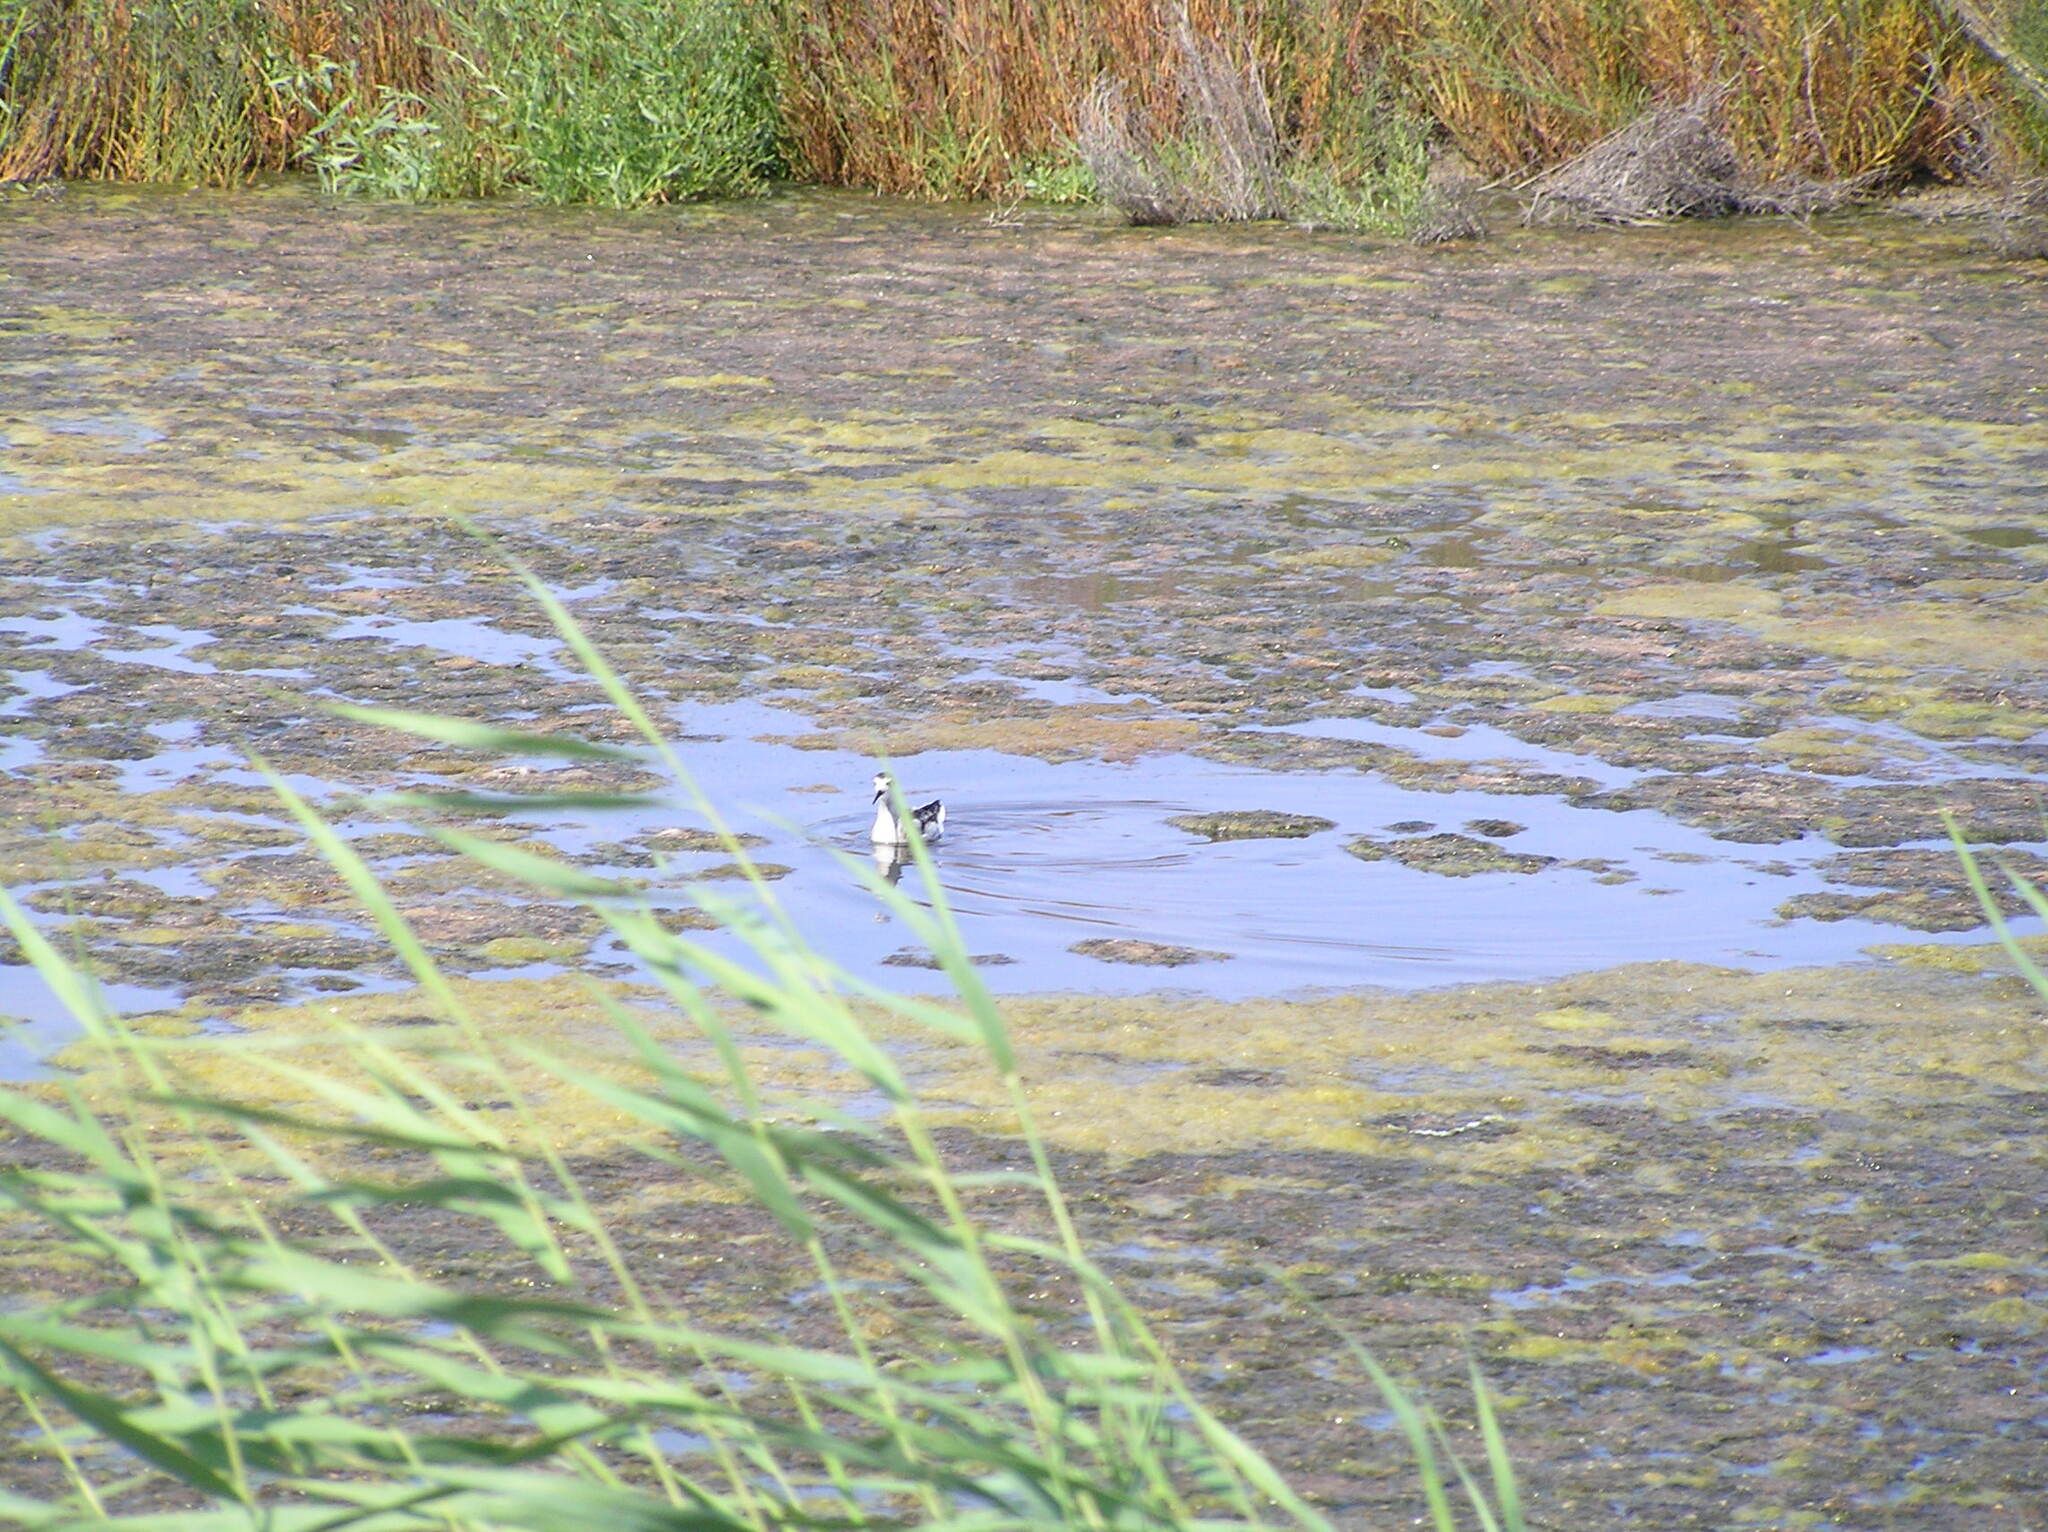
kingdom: Animalia
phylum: Chordata
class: Aves
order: Charadriiformes
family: Scolopacidae
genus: Phalaropus
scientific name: Phalaropus lobatus
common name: Red-necked phalarope
